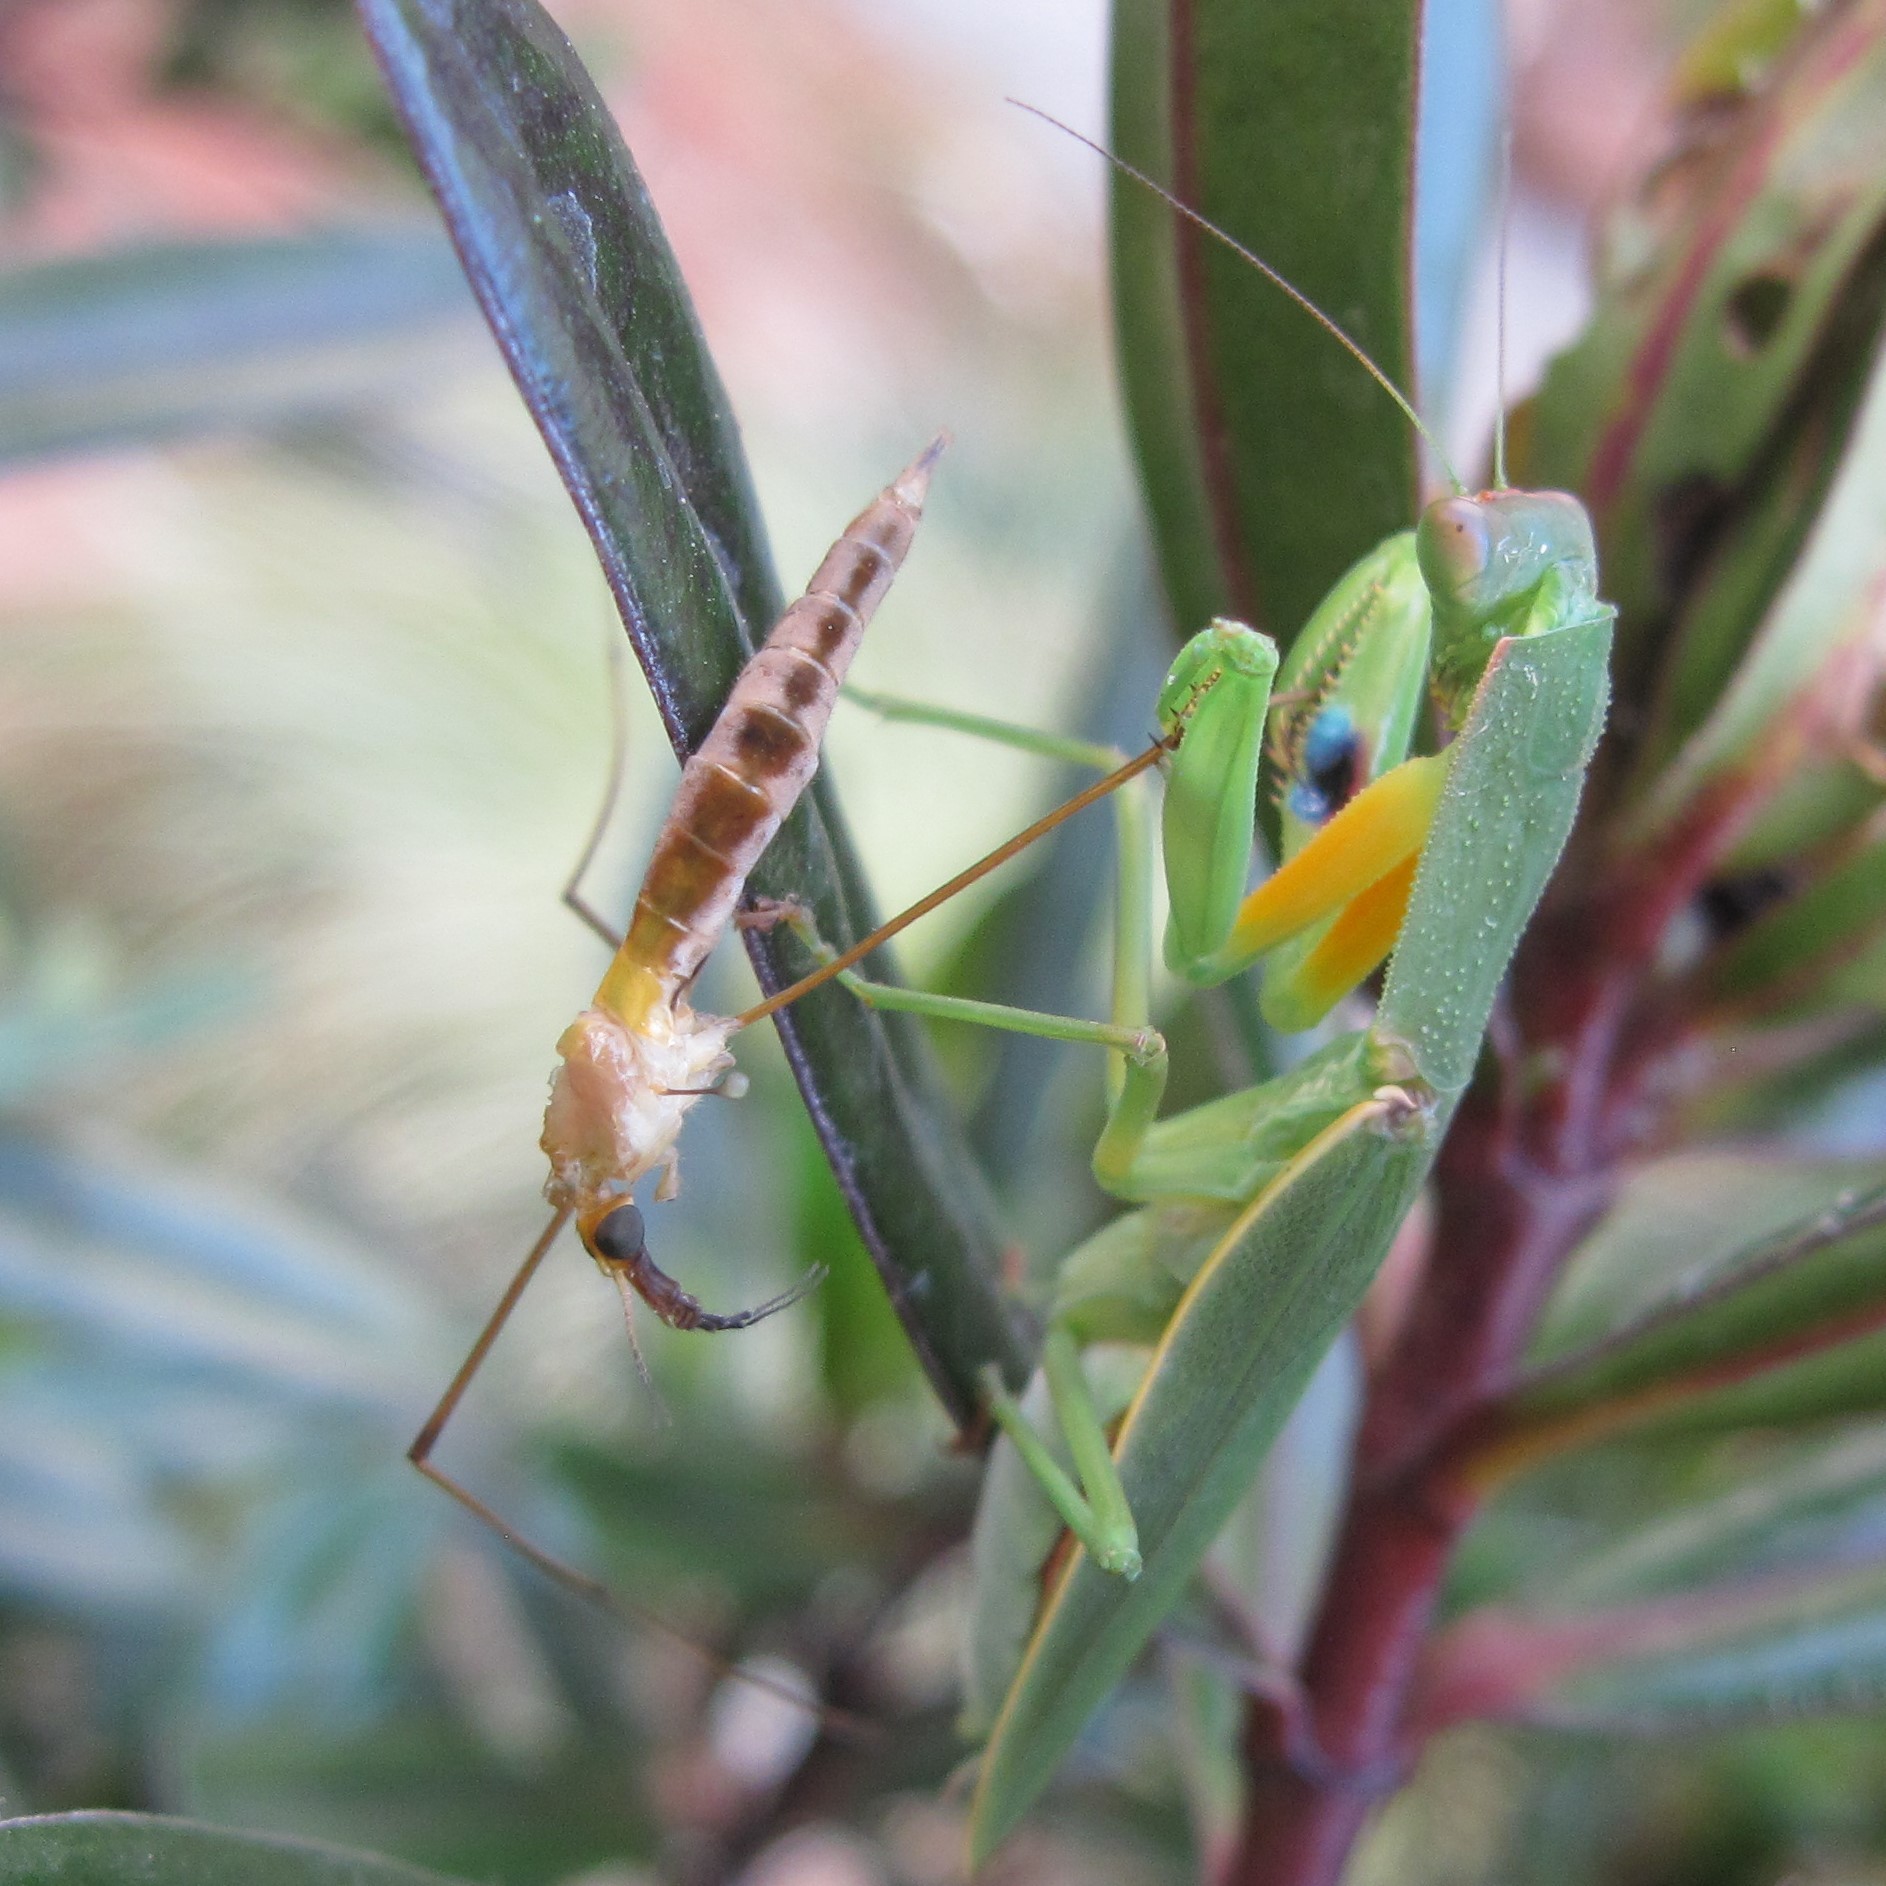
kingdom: Animalia
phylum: Arthropoda
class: Insecta
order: Mantodea
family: Mantidae
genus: Orthodera
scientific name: Orthodera novaezealandiae
